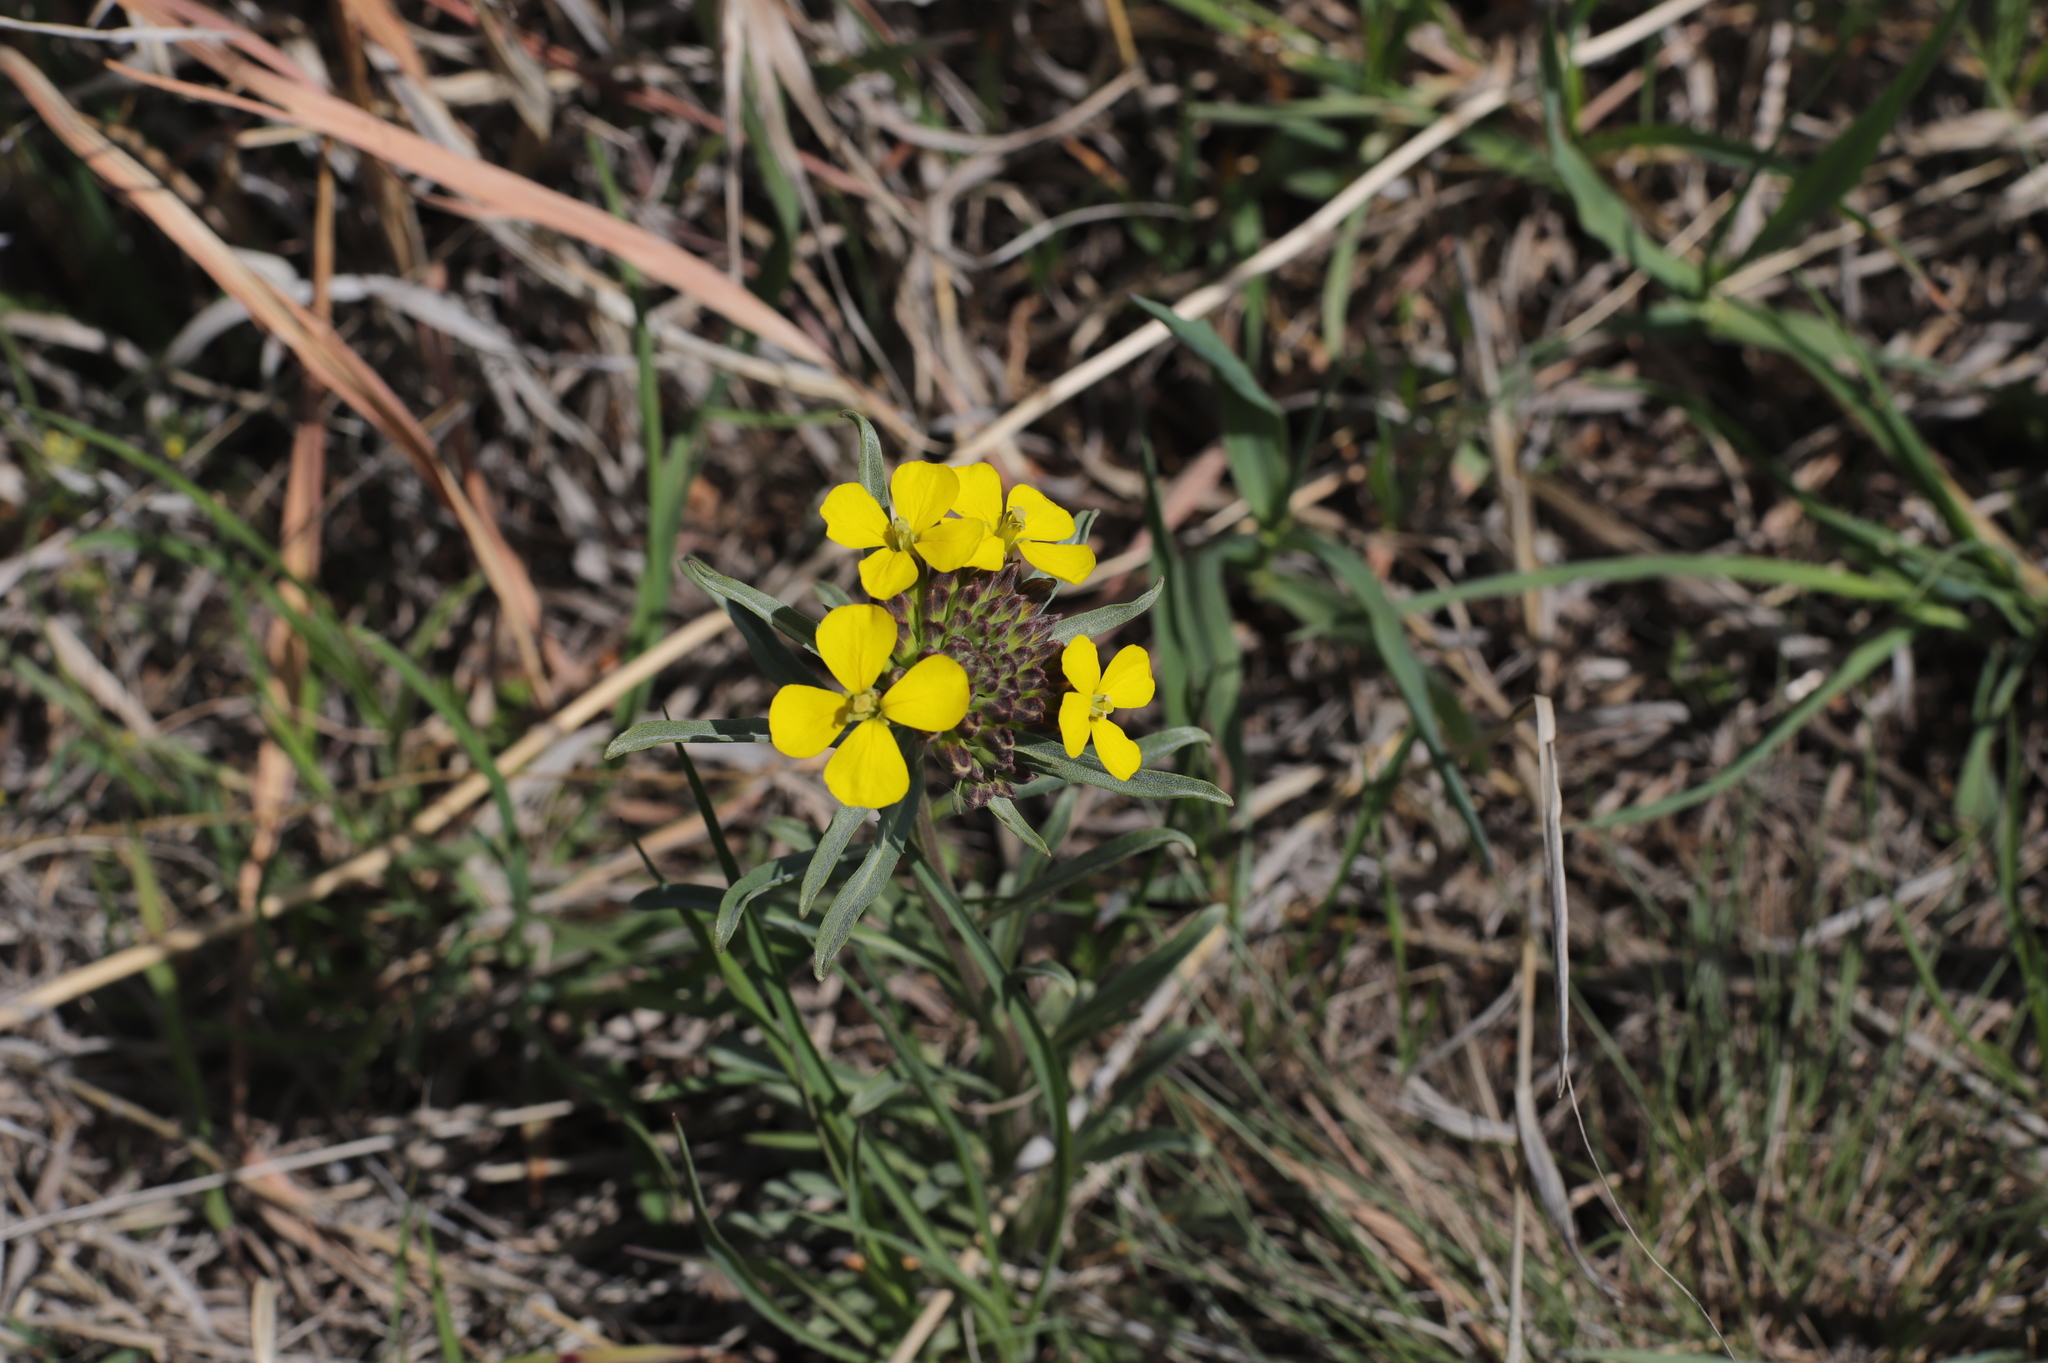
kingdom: Plantae
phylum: Tracheophyta
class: Magnoliopsida
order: Brassicales
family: Brassicaceae
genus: Erysimum
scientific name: Erysimum capitatum
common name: Western wallflower
